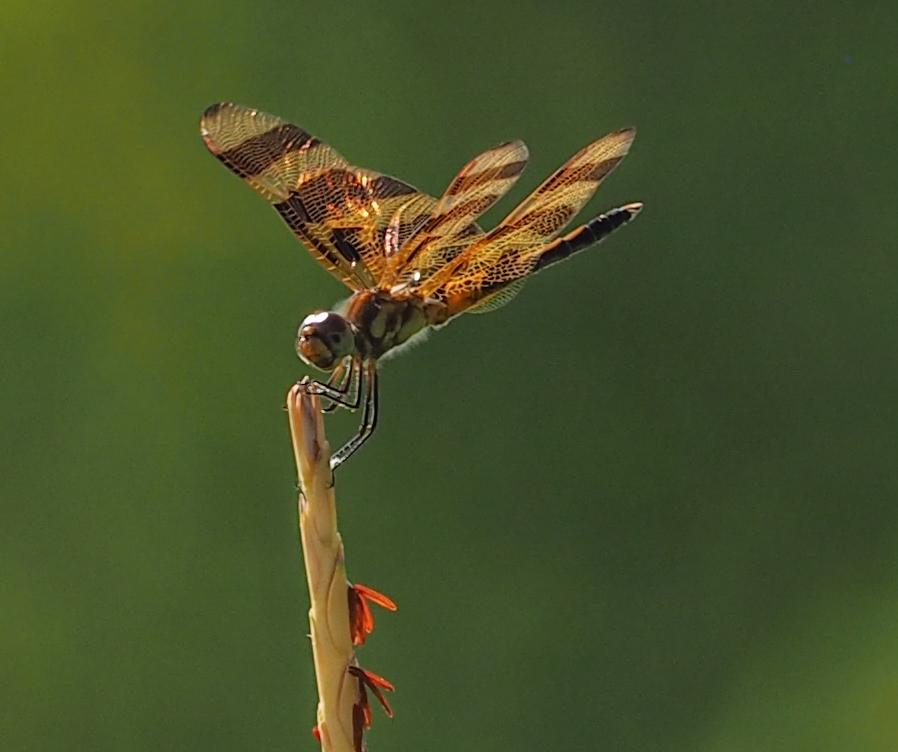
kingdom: Animalia
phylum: Arthropoda
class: Insecta
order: Odonata
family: Libellulidae
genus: Celithemis
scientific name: Celithemis eponina
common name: Halloween pennant
